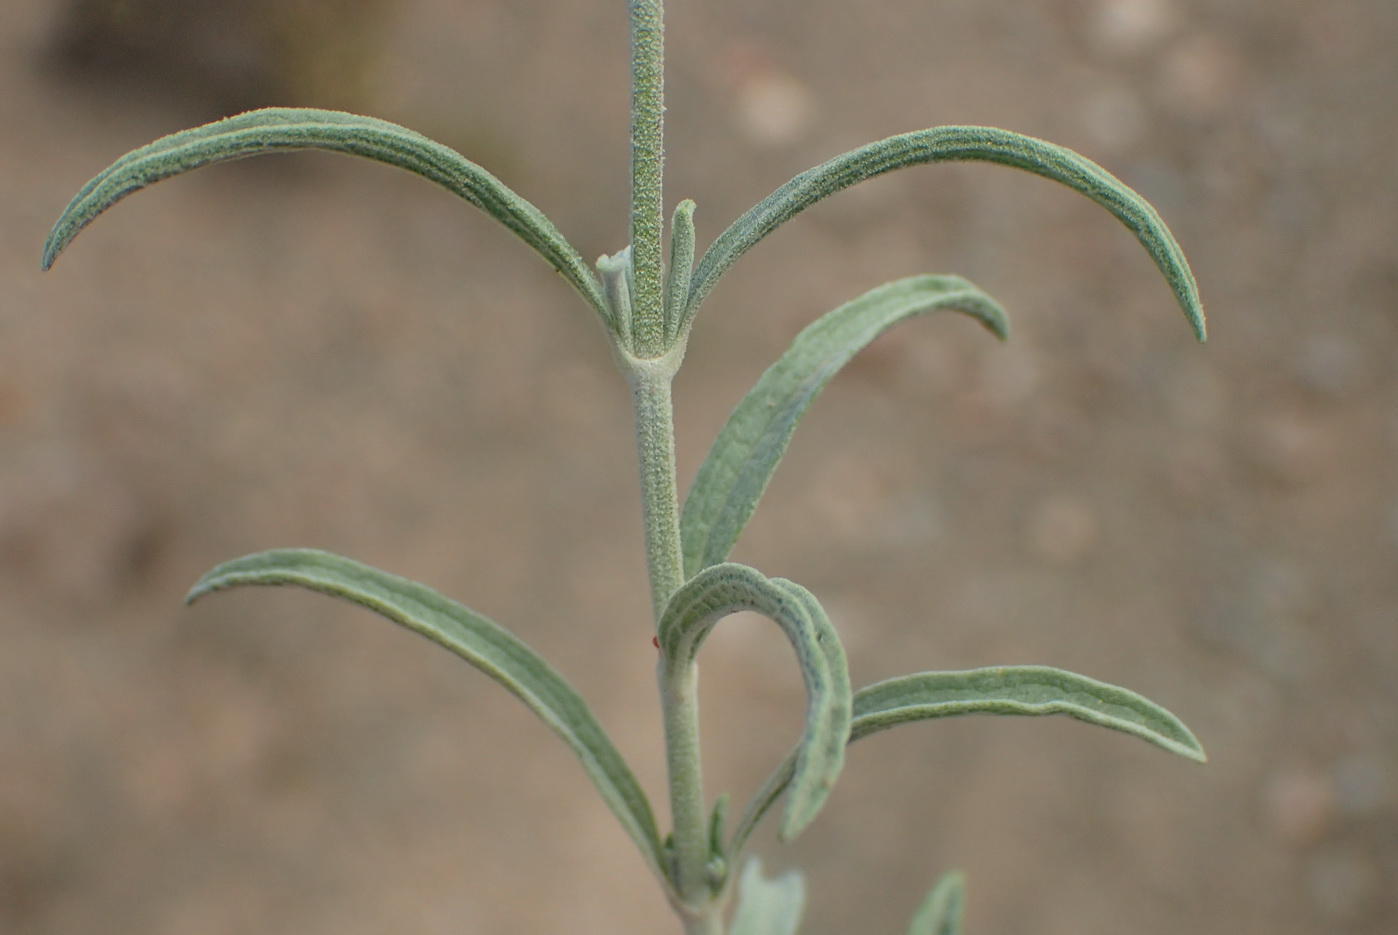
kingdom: Plantae
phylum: Tracheophyta
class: Magnoliopsida
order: Lamiales
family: Lamiaceae
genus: Stachys
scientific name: Stachys linearis
